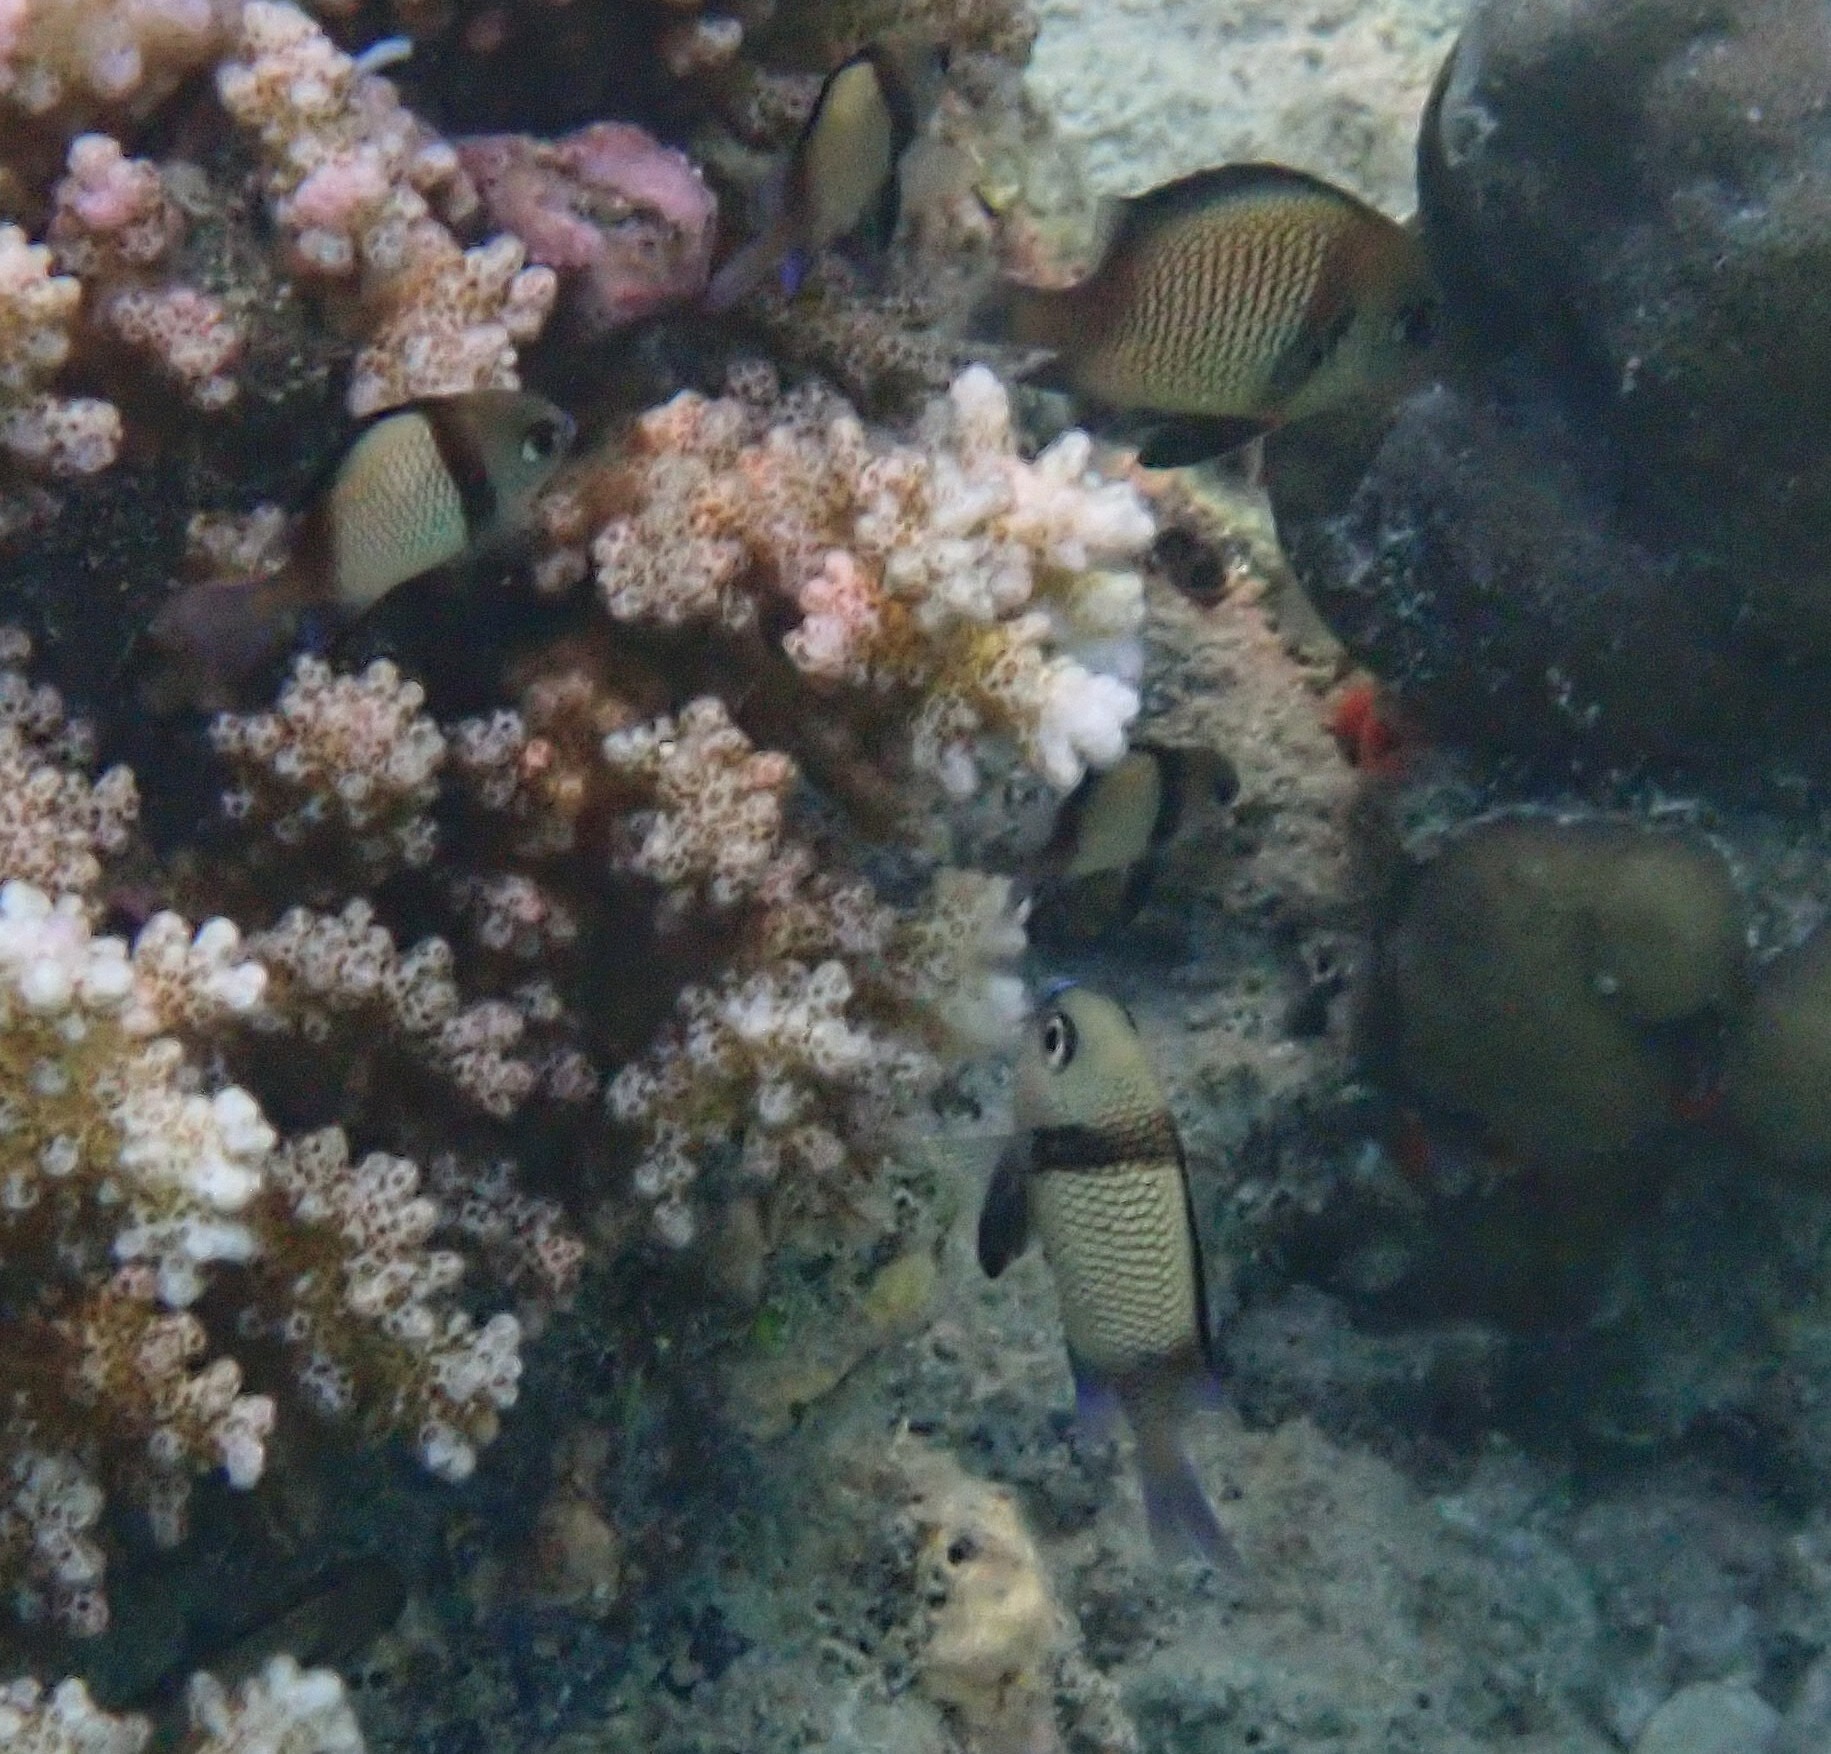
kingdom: Animalia
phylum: Chordata
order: Perciformes
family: Pomacentridae
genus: Dascyllus
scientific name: Dascyllus reticulatus
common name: Reticulated dascyllus
